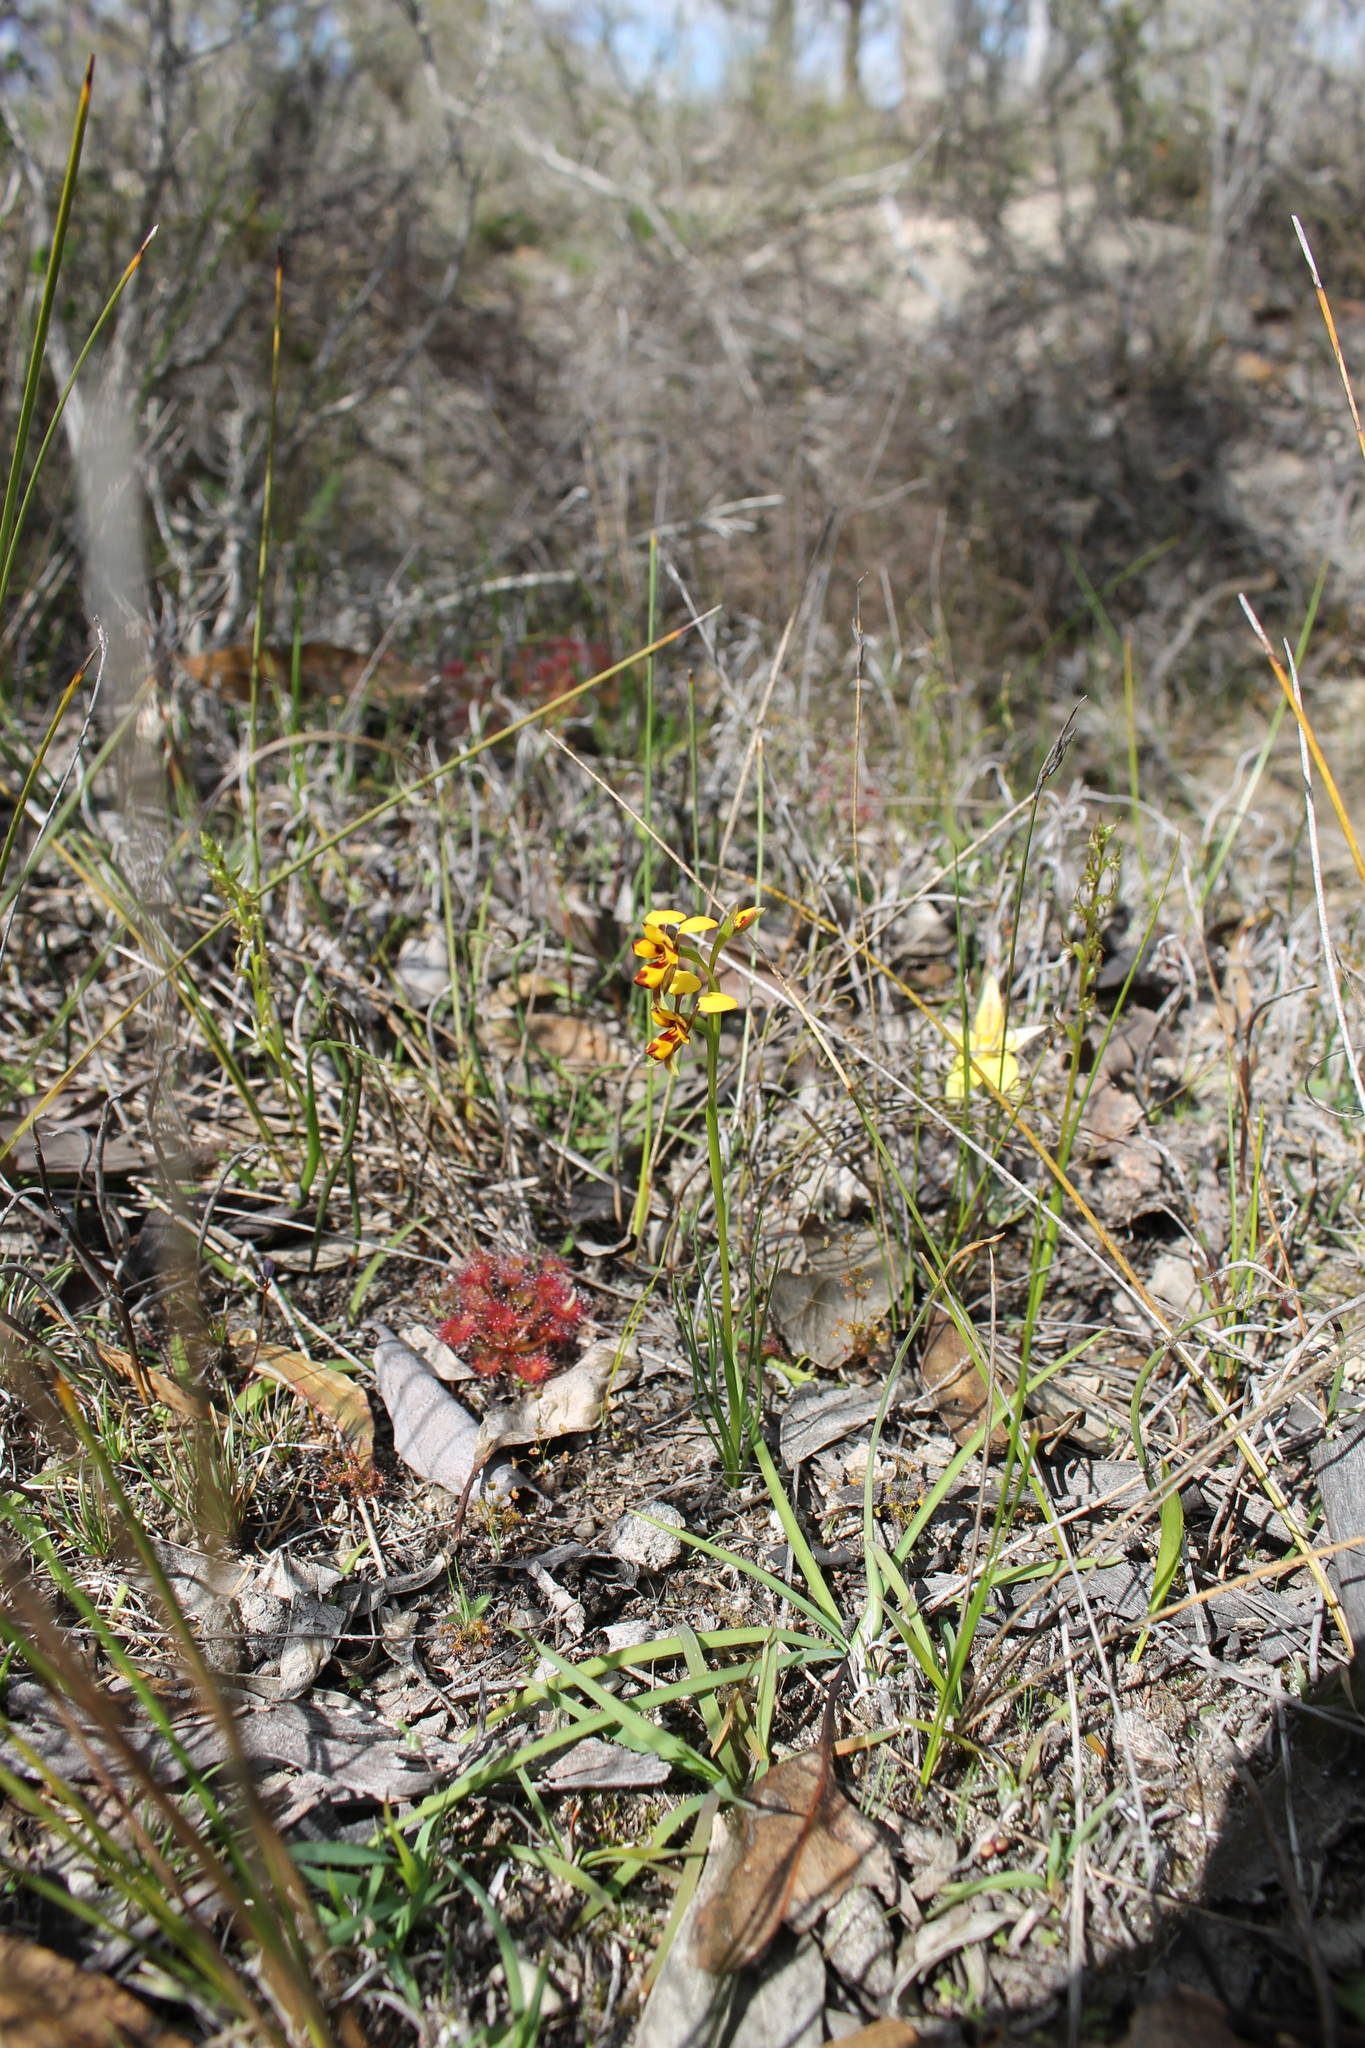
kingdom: Plantae
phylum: Tracheophyta
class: Liliopsida
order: Asparagales
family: Orchidaceae
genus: Diuris
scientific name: Diuris decrementum
